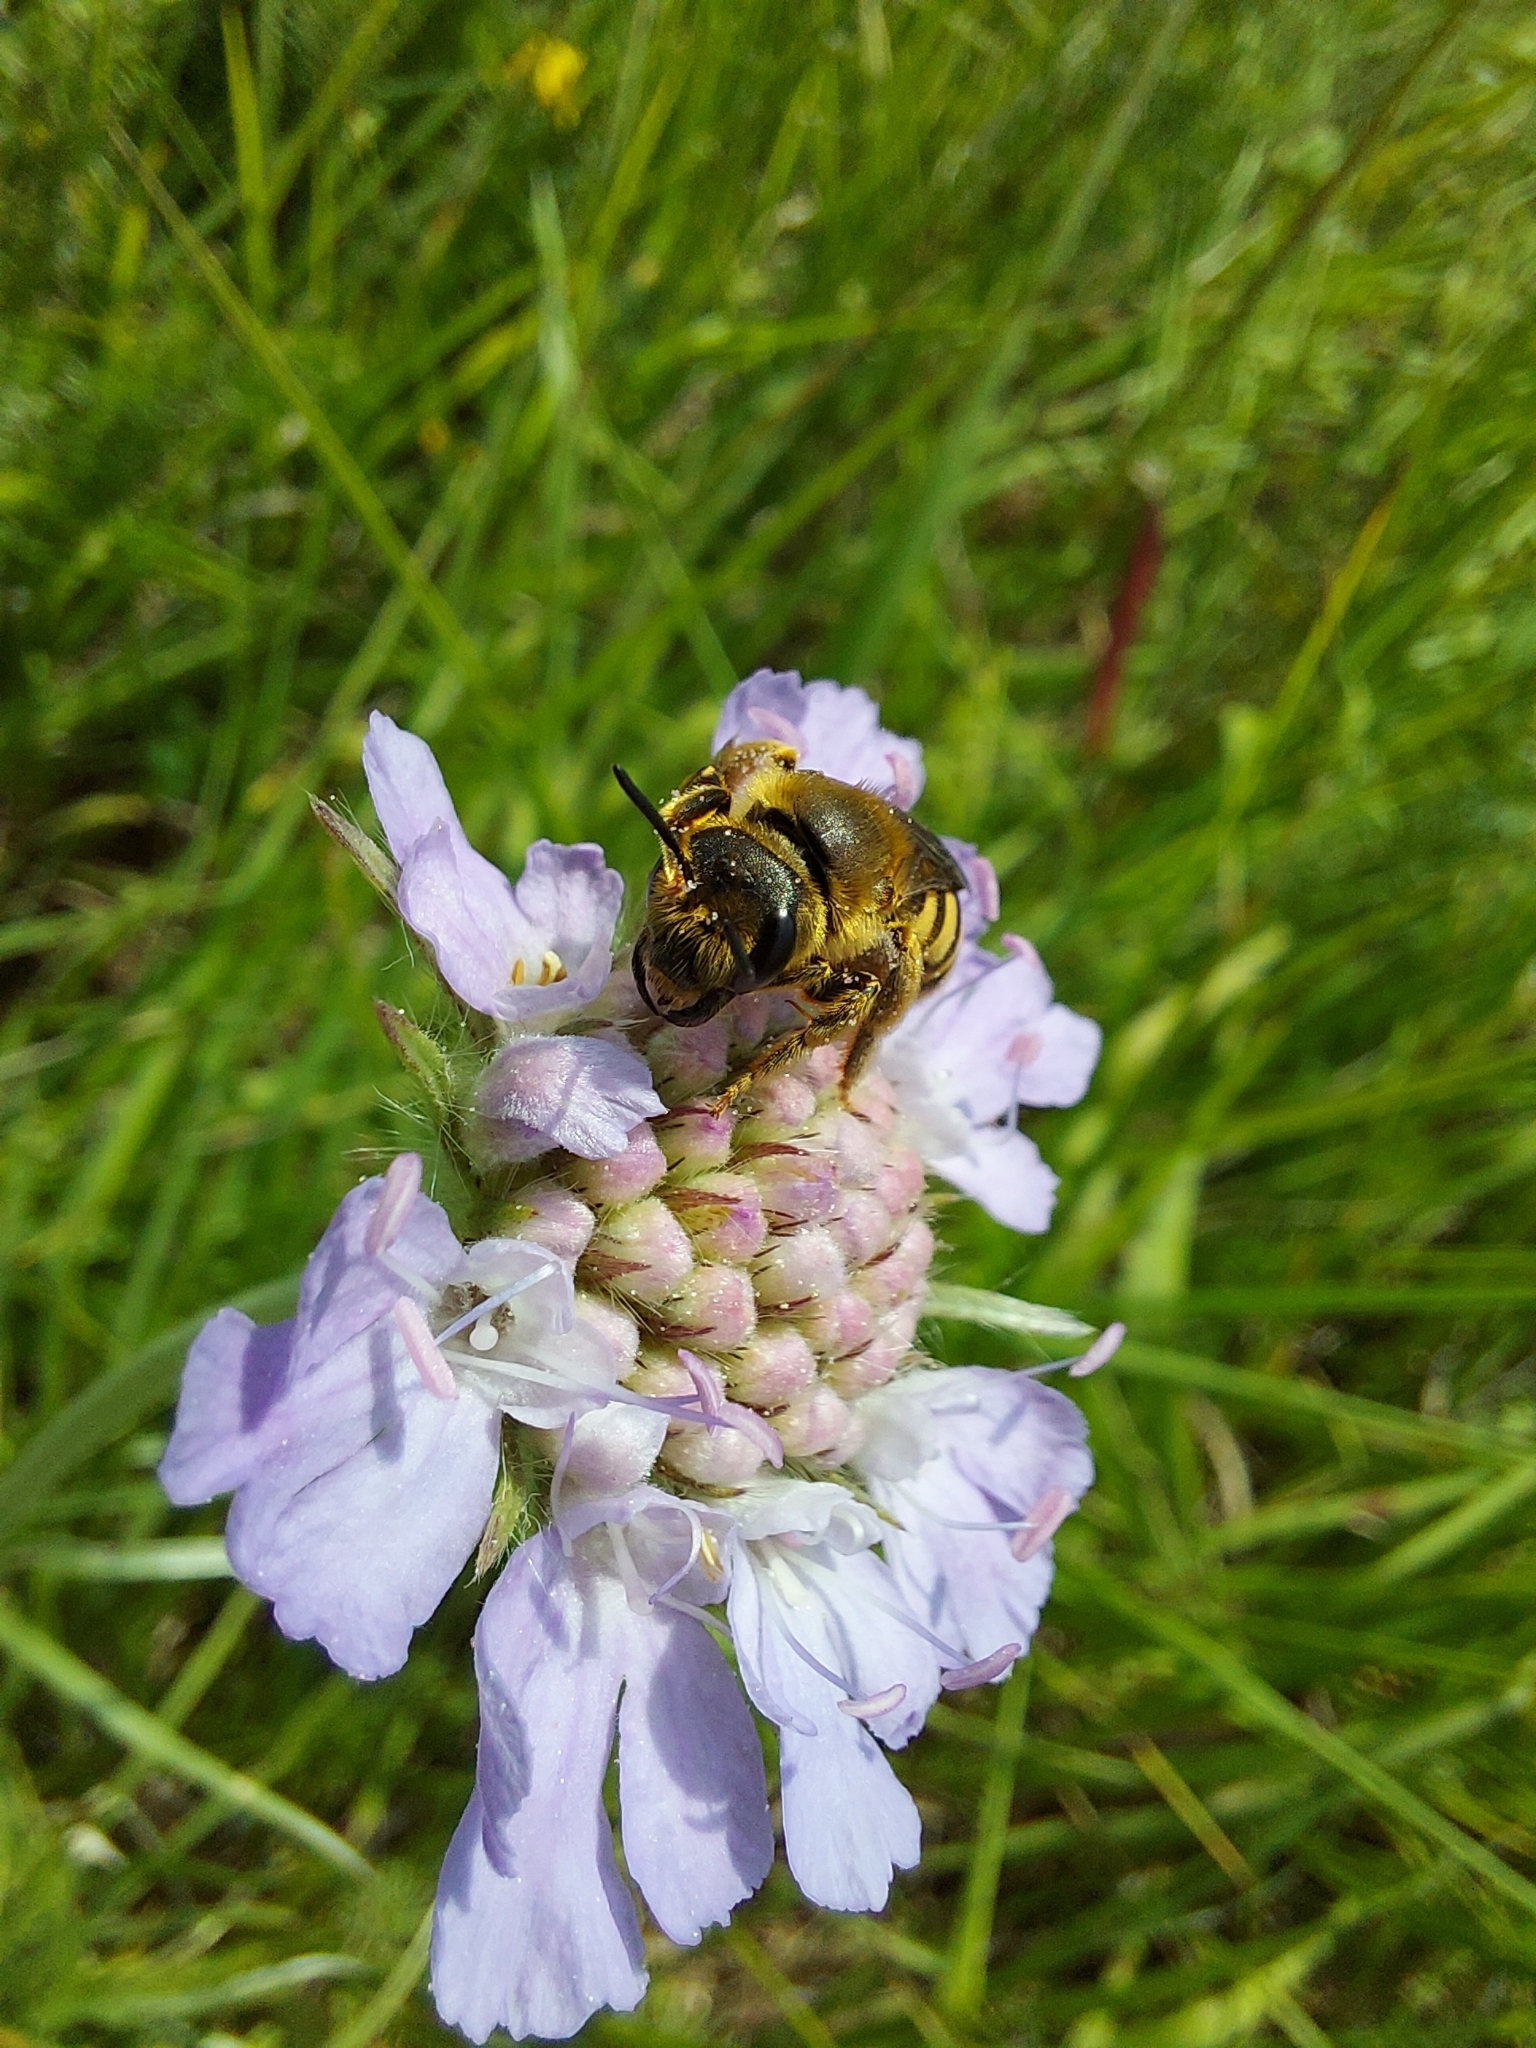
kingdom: Animalia
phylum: Arthropoda
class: Insecta
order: Hymenoptera
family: Halictidae
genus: Halictus
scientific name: Halictus scabiosae
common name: Great banded furrow bee
